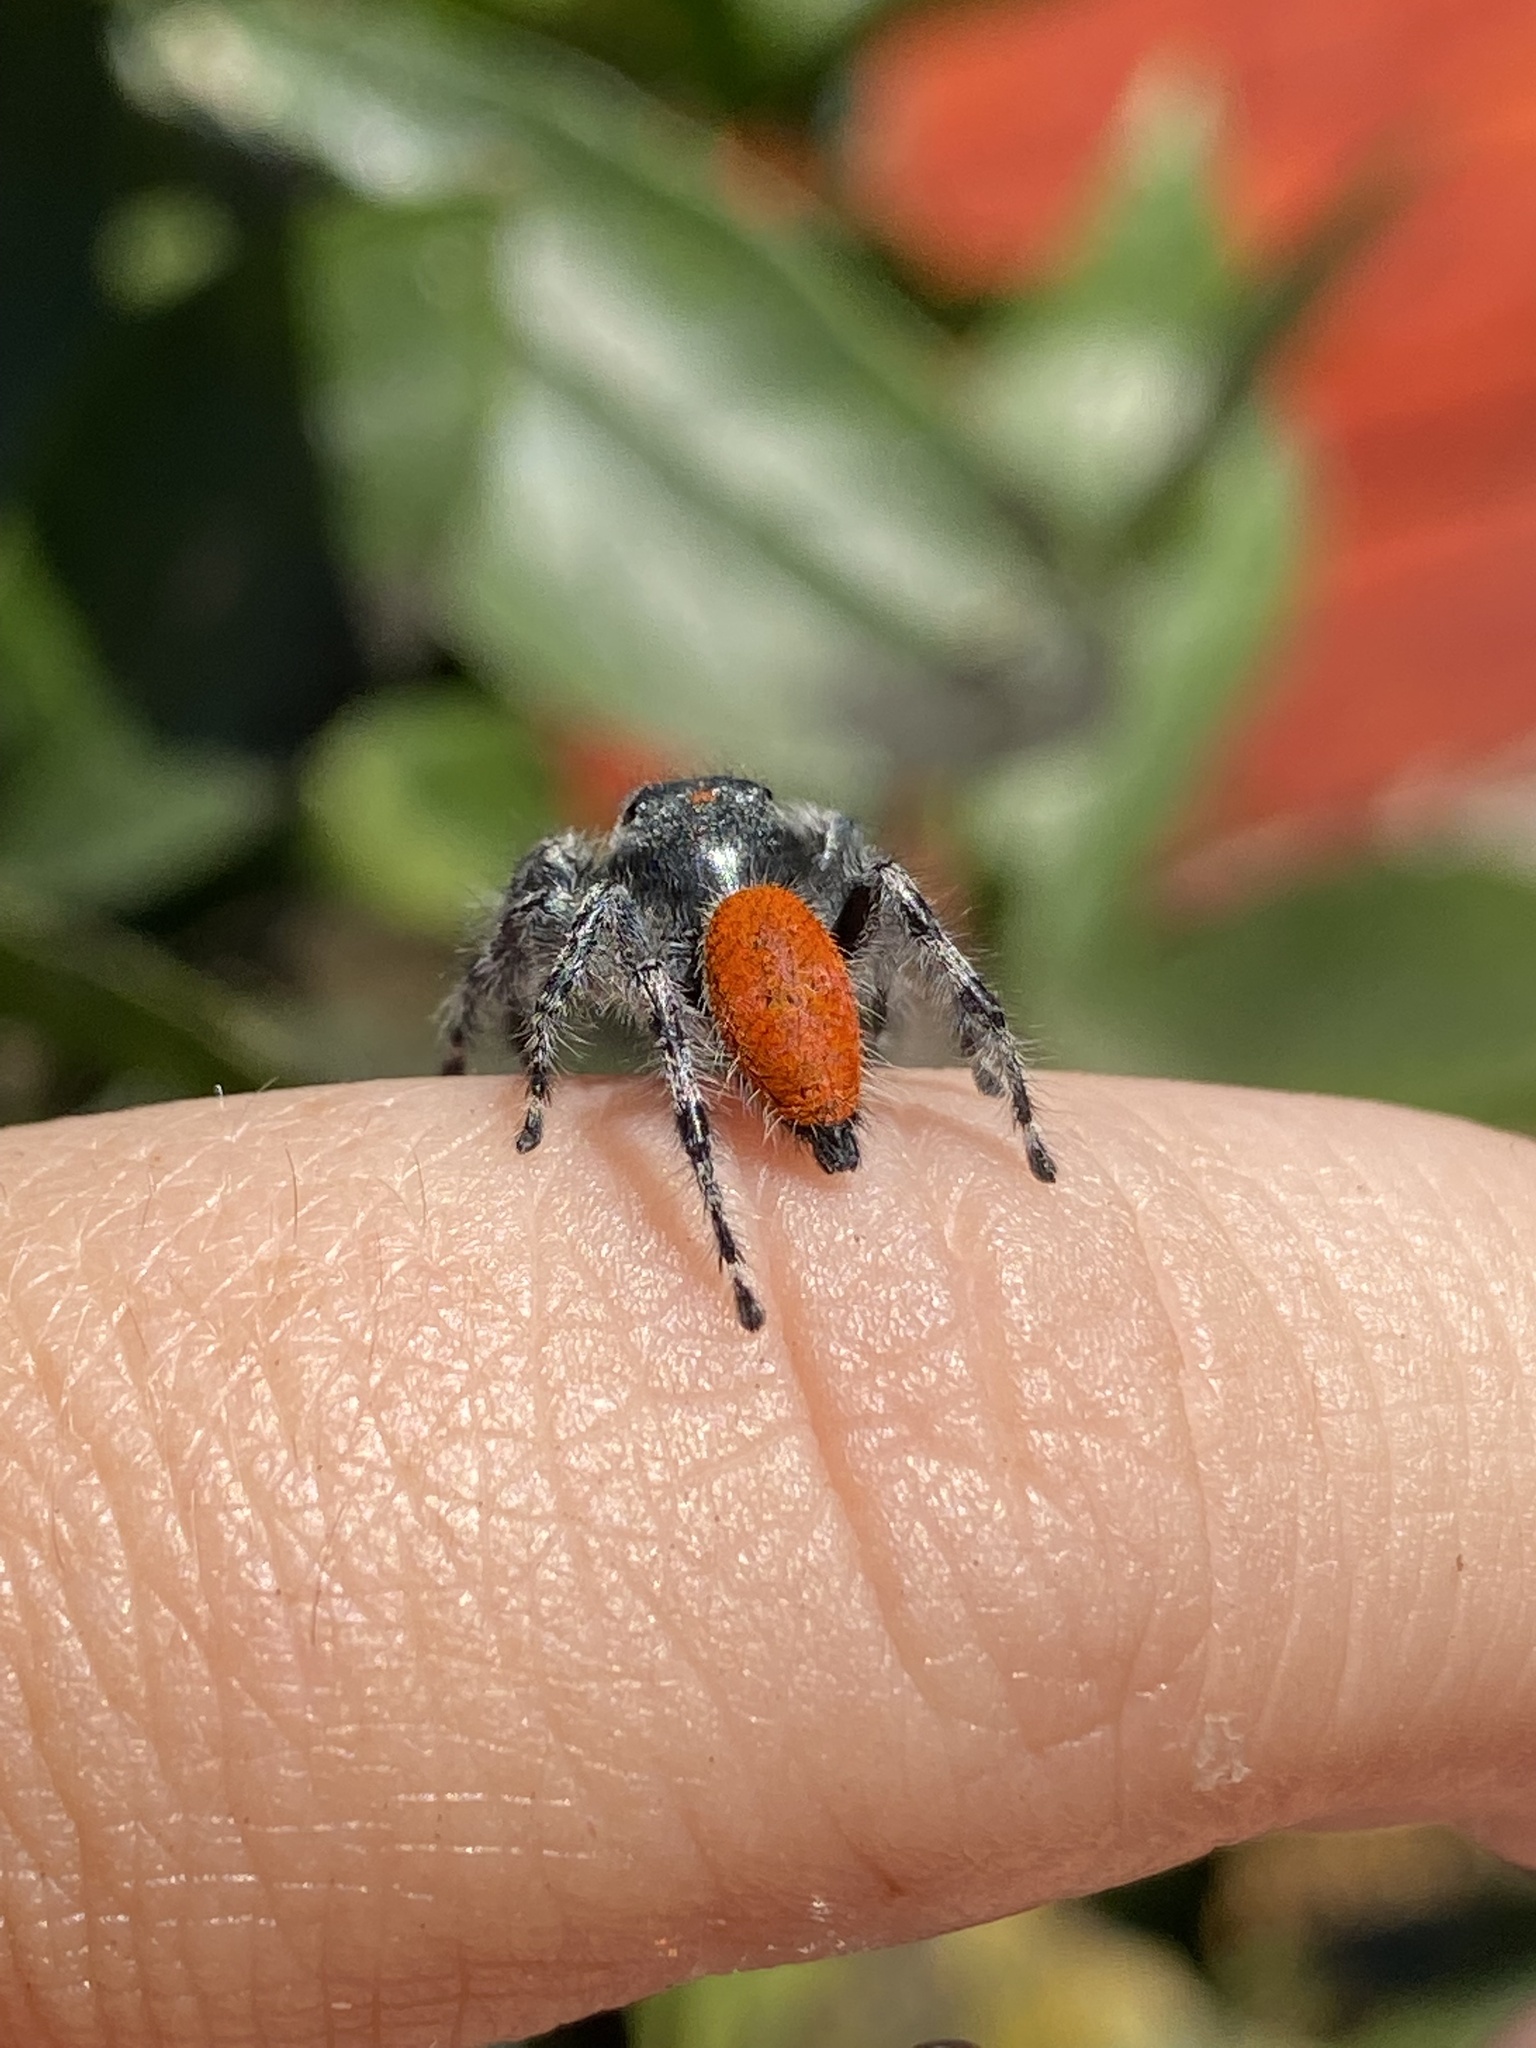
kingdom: Animalia
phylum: Arthropoda
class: Arachnida
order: Araneae
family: Salticidae
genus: Phidippus
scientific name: Phidippus adumbratus
